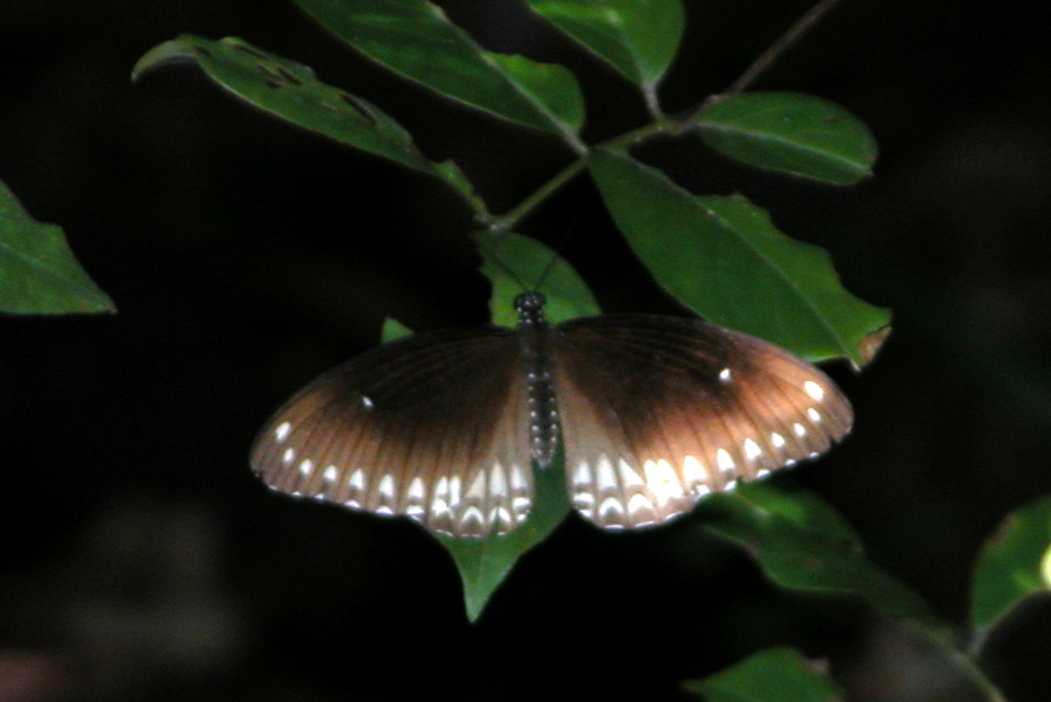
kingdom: Animalia
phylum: Arthropoda
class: Insecta
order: Lepidoptera
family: Papilionidae
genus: Papilio
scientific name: Papilio dravidarum
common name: Malabar raven
